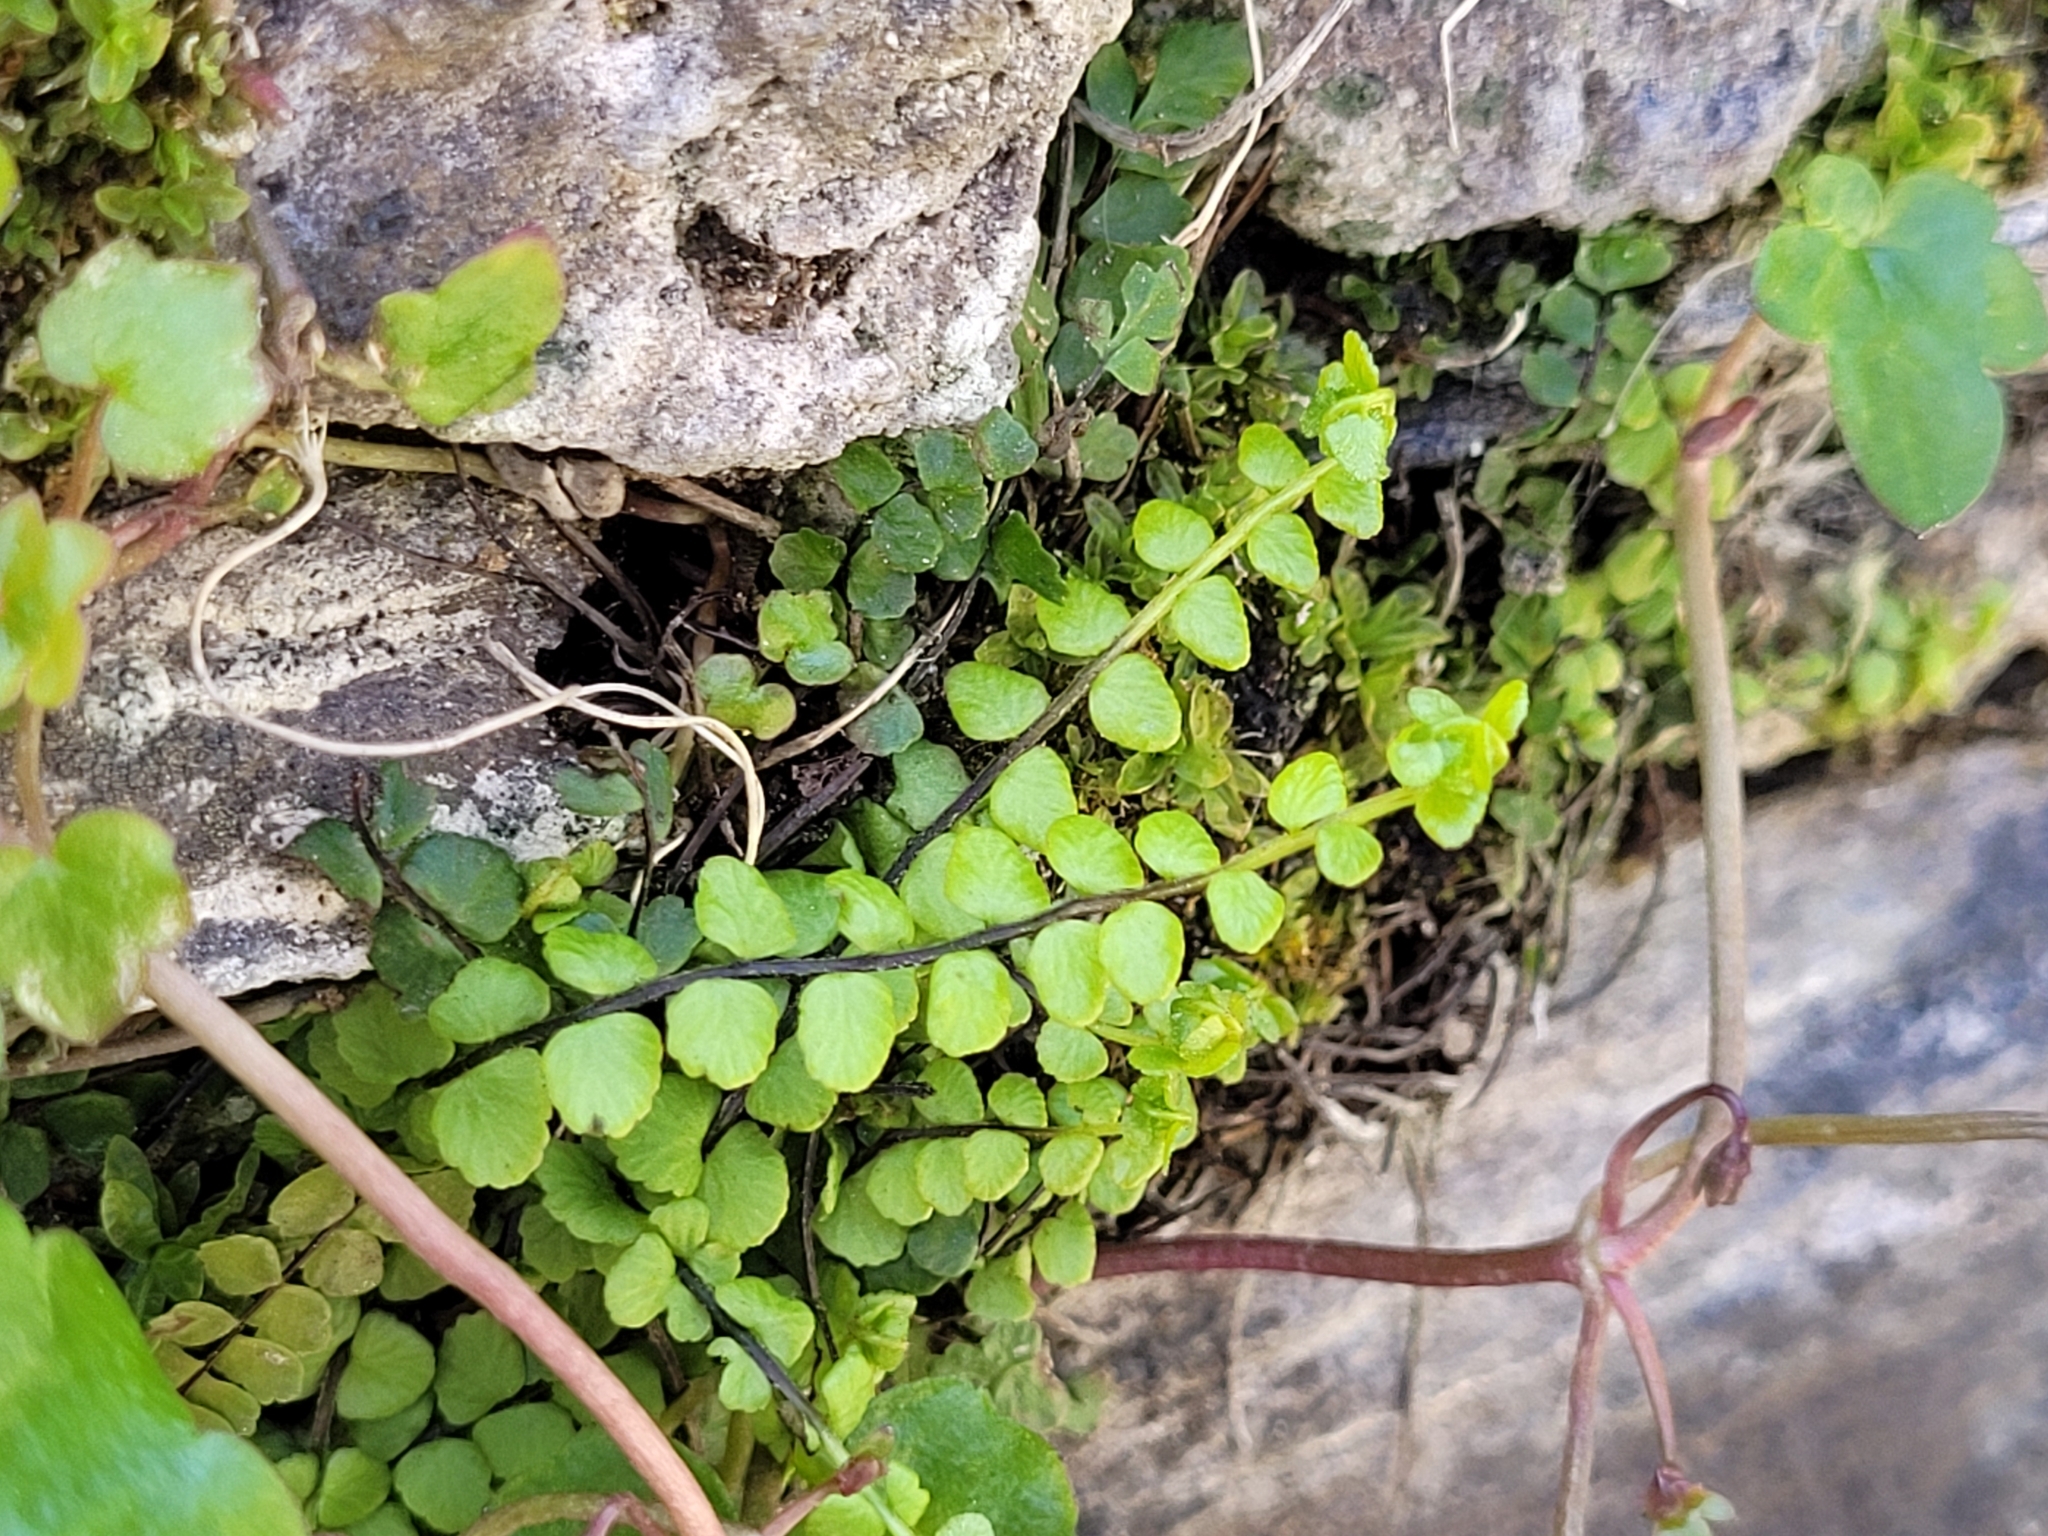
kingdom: Plantae
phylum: Tracheophyta
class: Polypodiopsida
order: Polypodiales
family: Aspleniaceae
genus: Asplenium
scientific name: Asplenium trichomanes
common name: Maidenhair spleenwort
